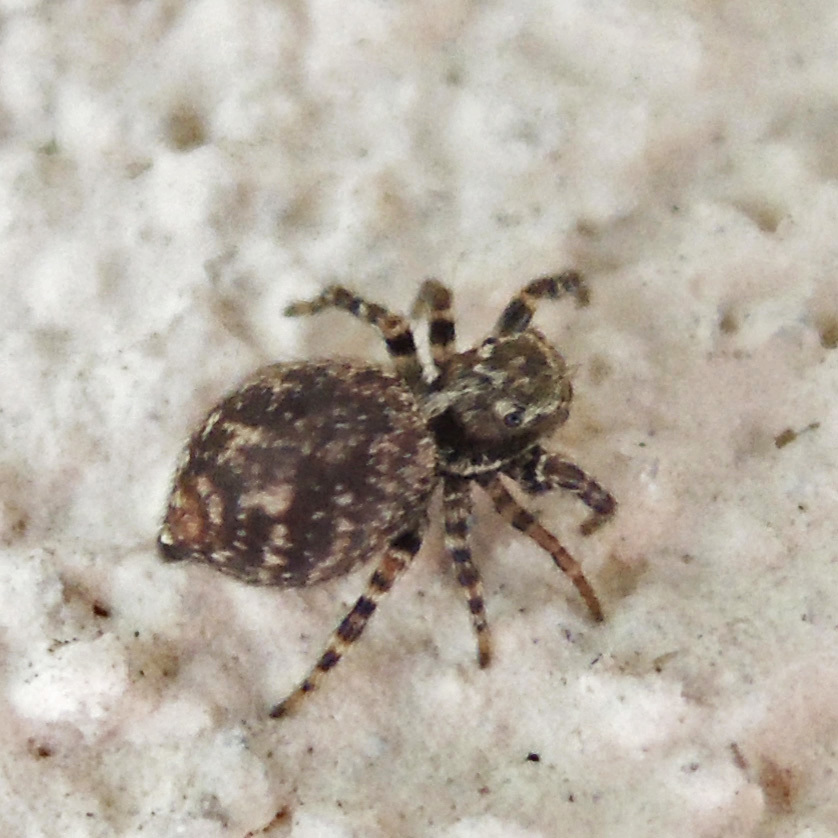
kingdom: Animalia
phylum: Arthropoda
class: Arachnida
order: Araneae
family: Salticidae
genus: Pseudeuophrys
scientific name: Pseudeuophrys erratica
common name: Jumping spider
